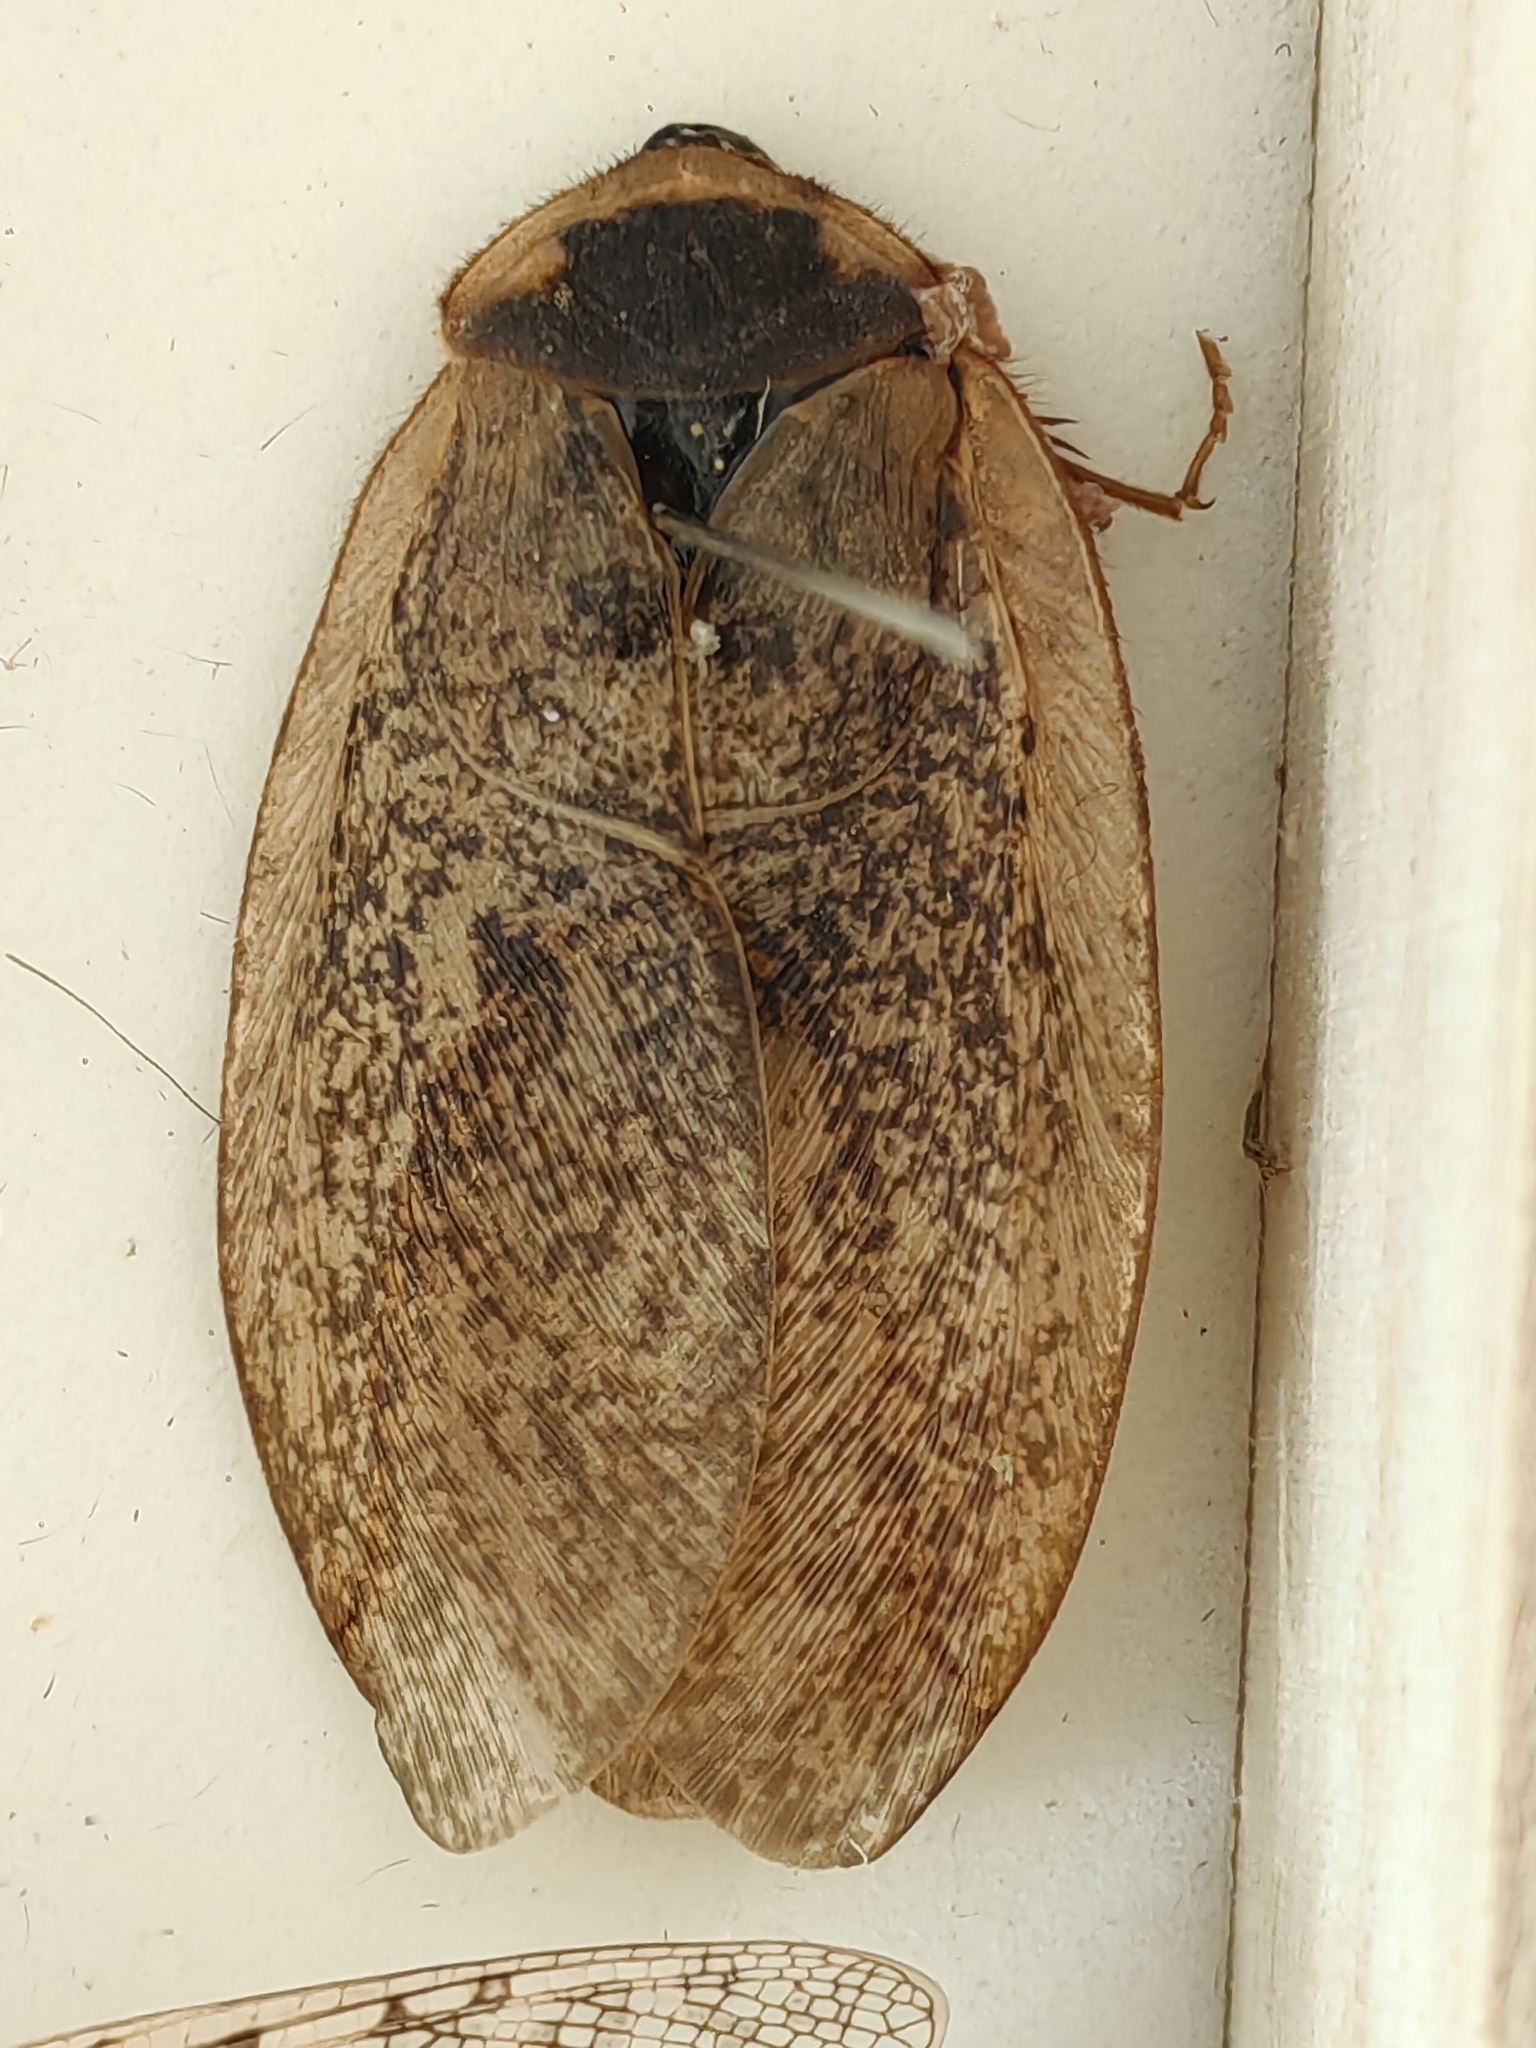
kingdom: Animalia
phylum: Arthropoda
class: Insecta
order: Blattodea
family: Corydiidae
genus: Eupolyphaga
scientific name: Eupolyphaga sinensis
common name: Chinese medicinal cockroach
